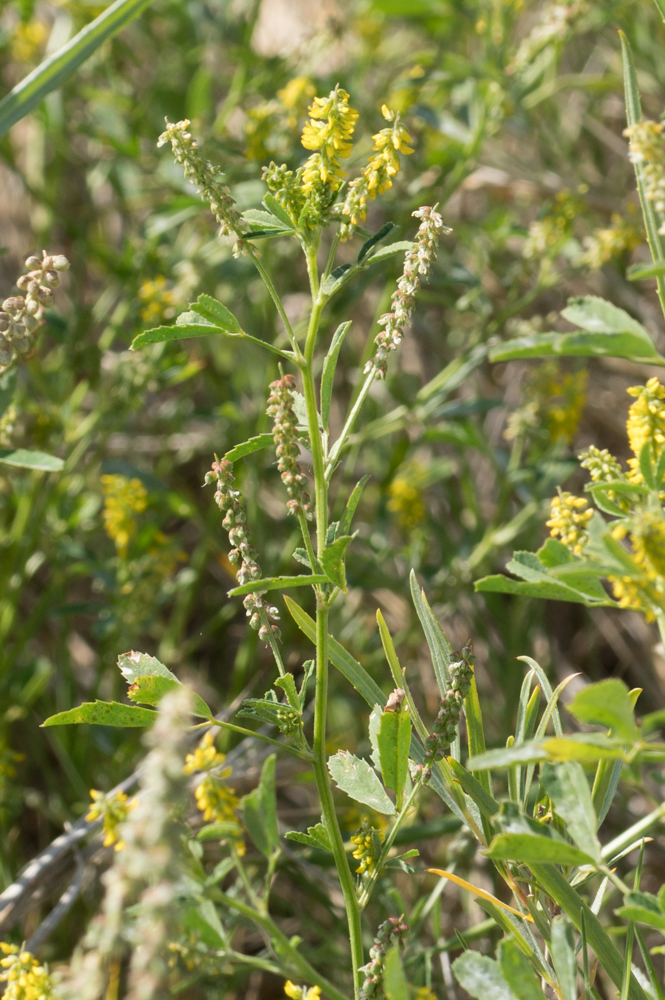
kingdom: Plantae
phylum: Tracheophyta
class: Magnoliopsida
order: Fabales
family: Fabaceae
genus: Melilotus
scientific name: Melilotus indicus
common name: Small melilot
